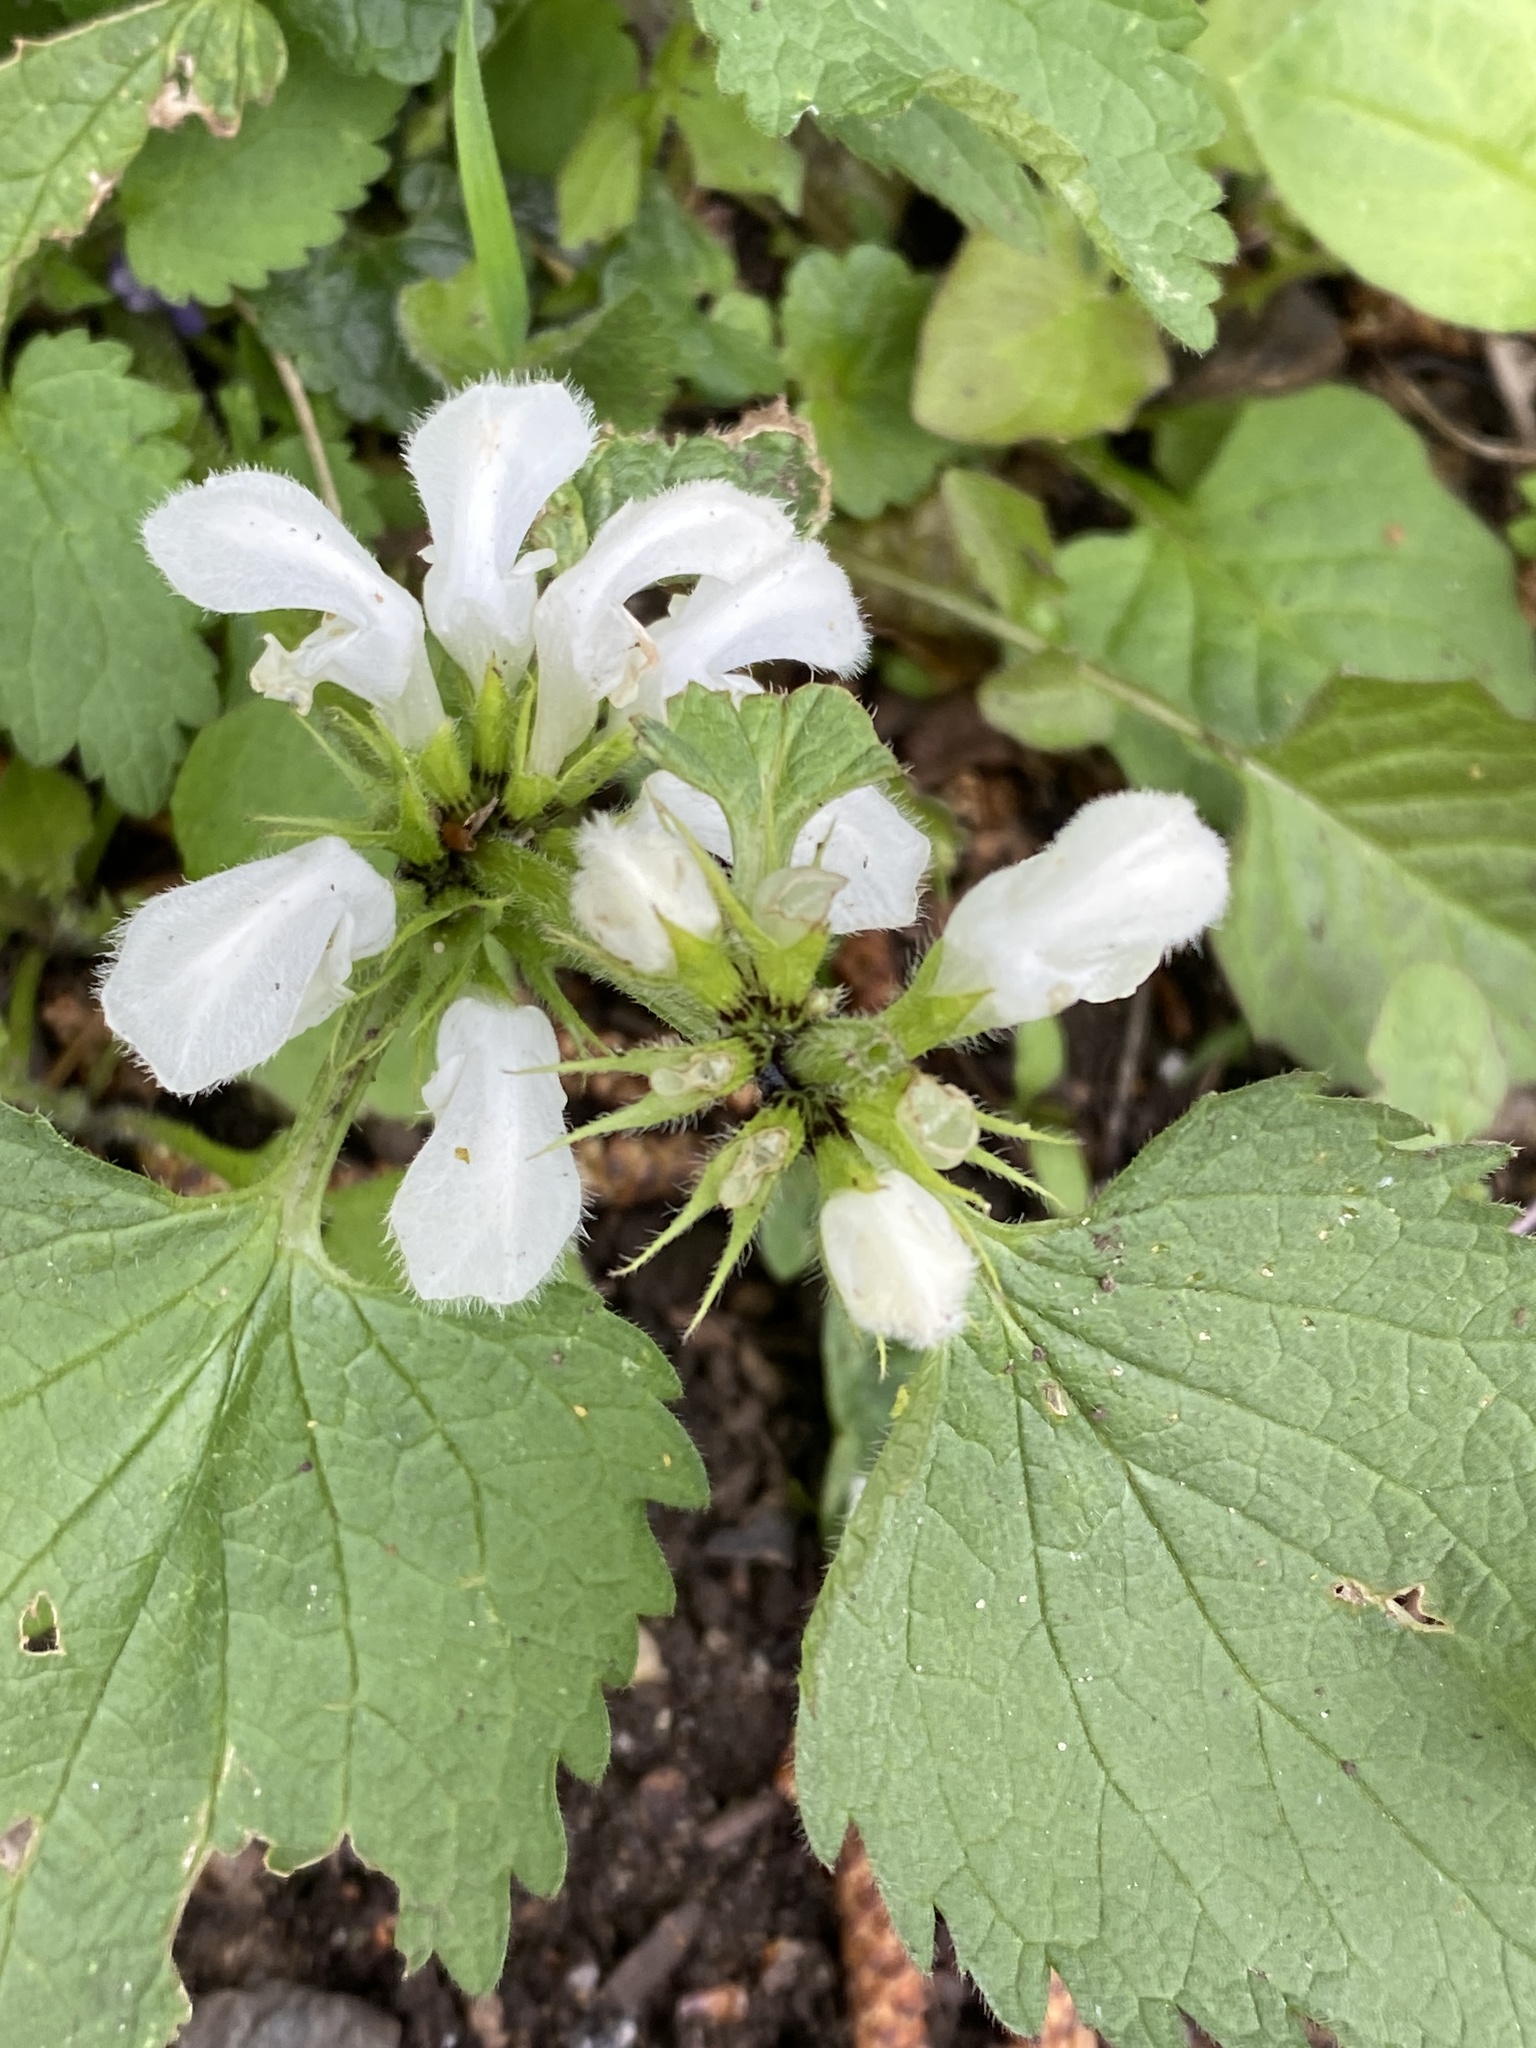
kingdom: Plantae
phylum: Tracheophyta
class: Magnoliopsida
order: Lamiales
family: Lamiaceae
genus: Lamium
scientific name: Lamium album
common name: White dead-nettle
